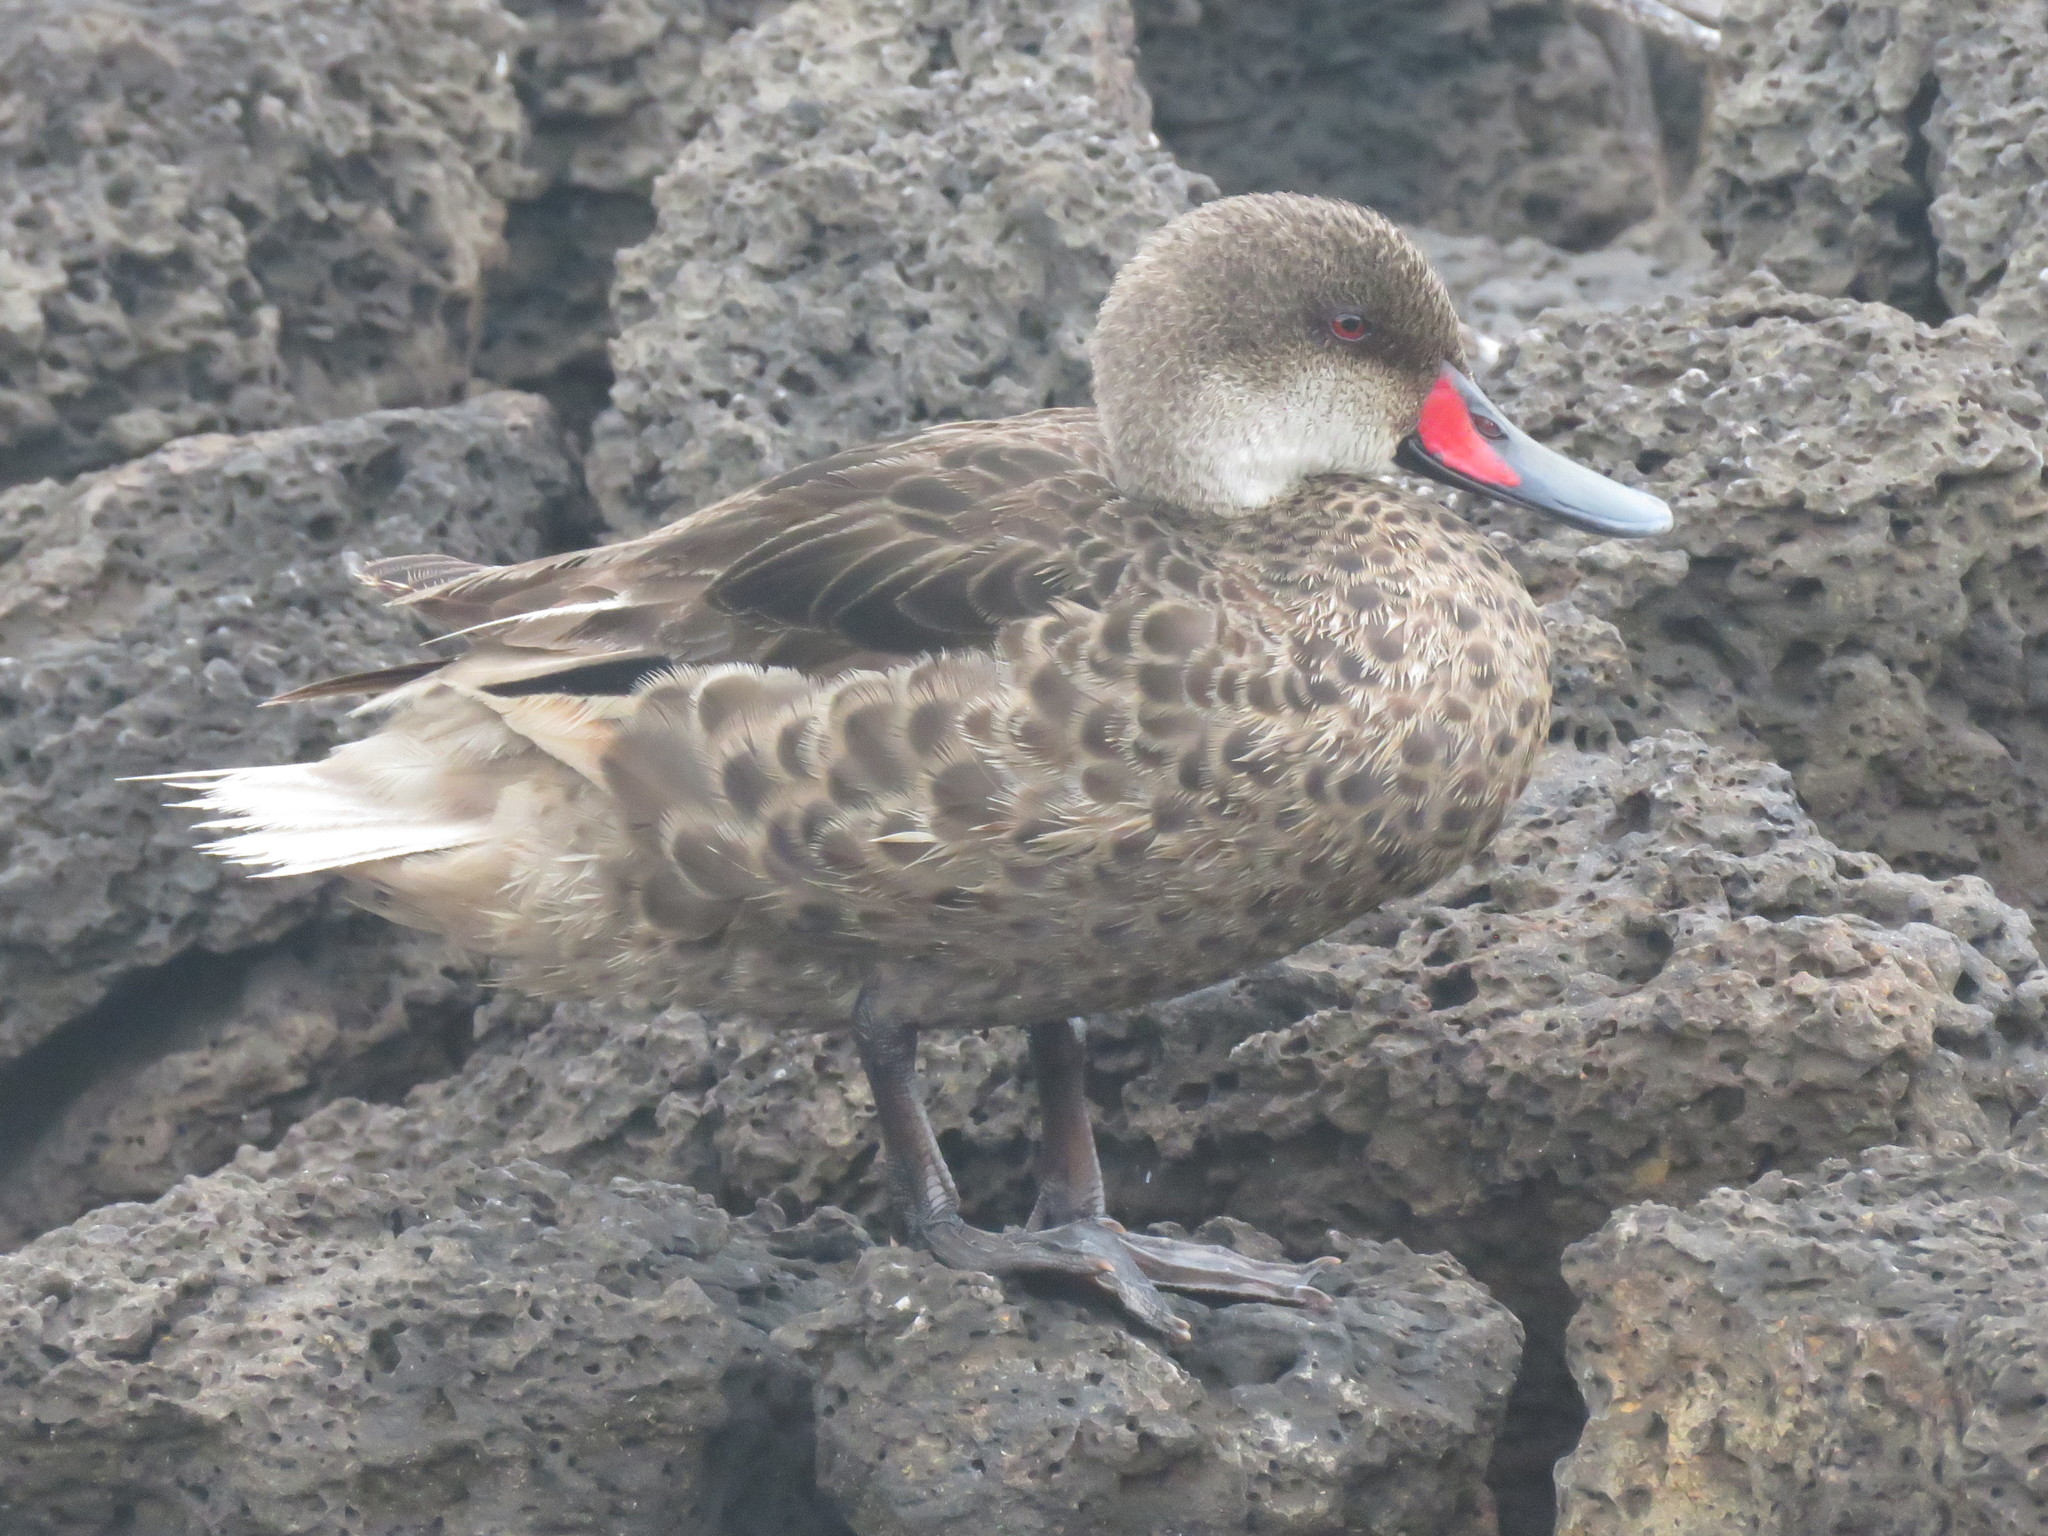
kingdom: Animalia
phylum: Chordata
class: Aves
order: Anseriformes
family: Anatidae
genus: Anas
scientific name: Anas bahamensis
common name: White-cheeked pintail
